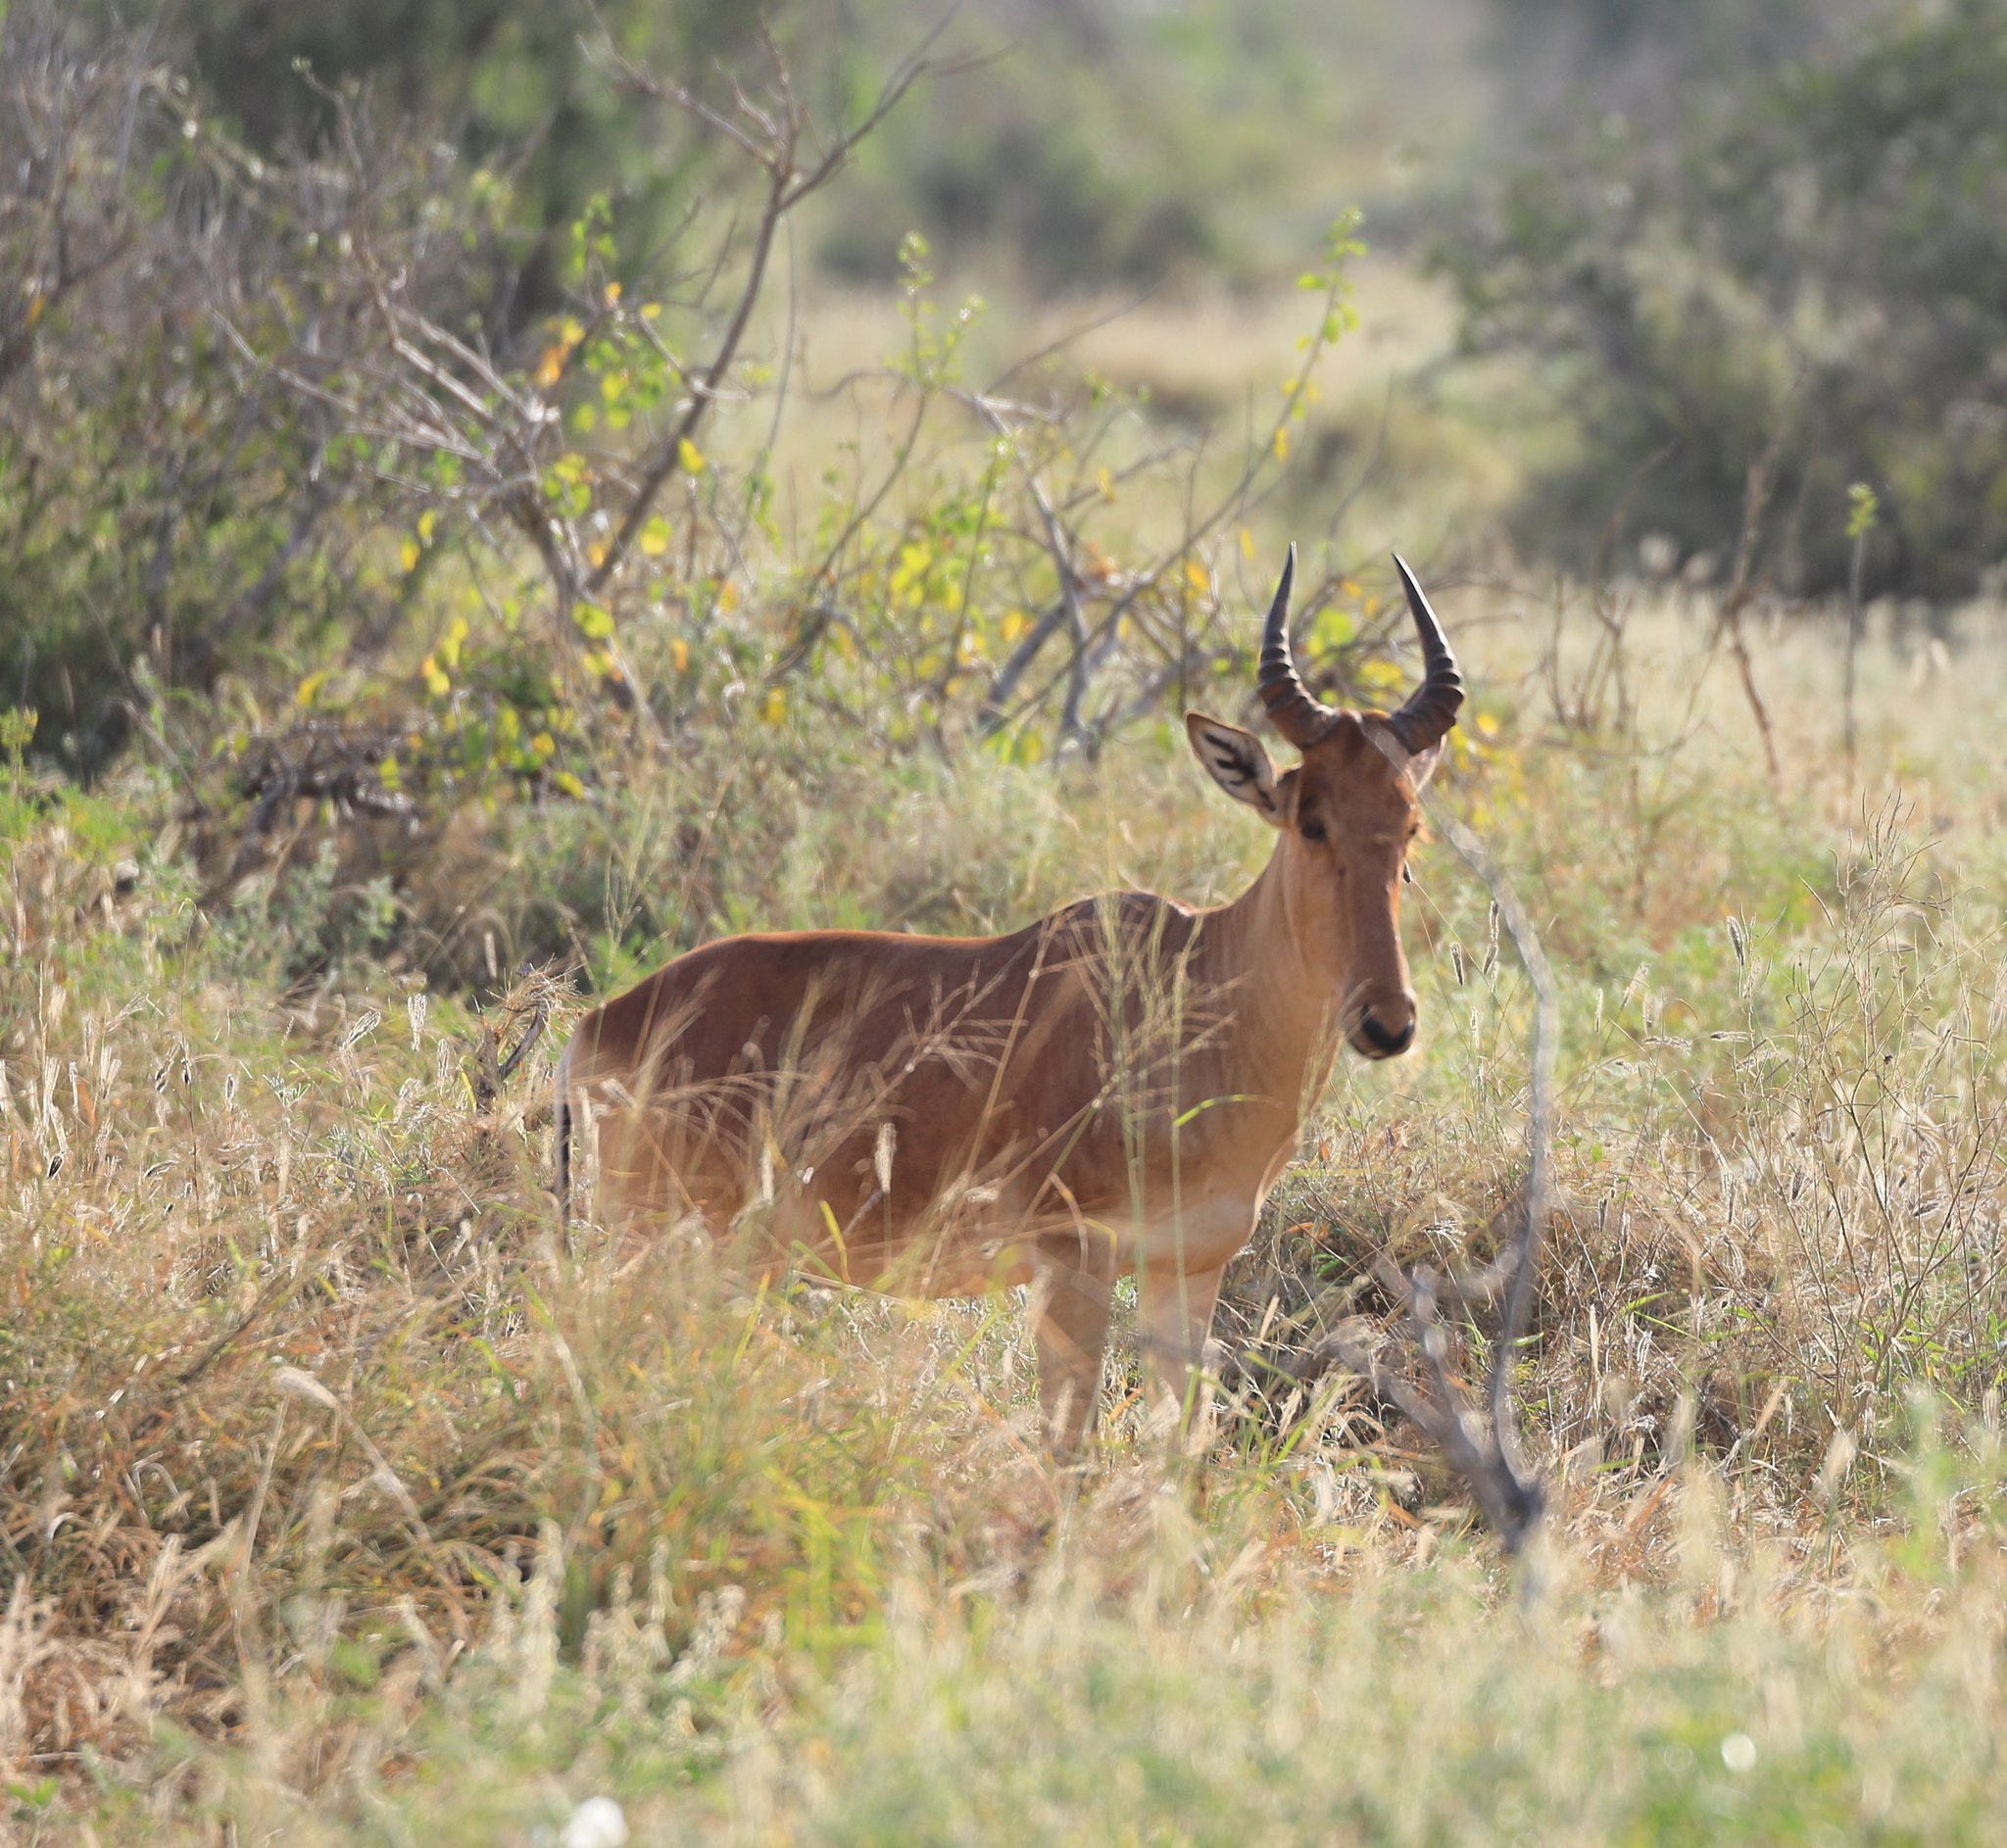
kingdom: Animalia
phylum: Chordata
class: Mammalia
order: Artiodactyla
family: Bovidae
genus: Alcelaphus
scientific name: Alcelaphus buselaphus
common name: Hartebeest
